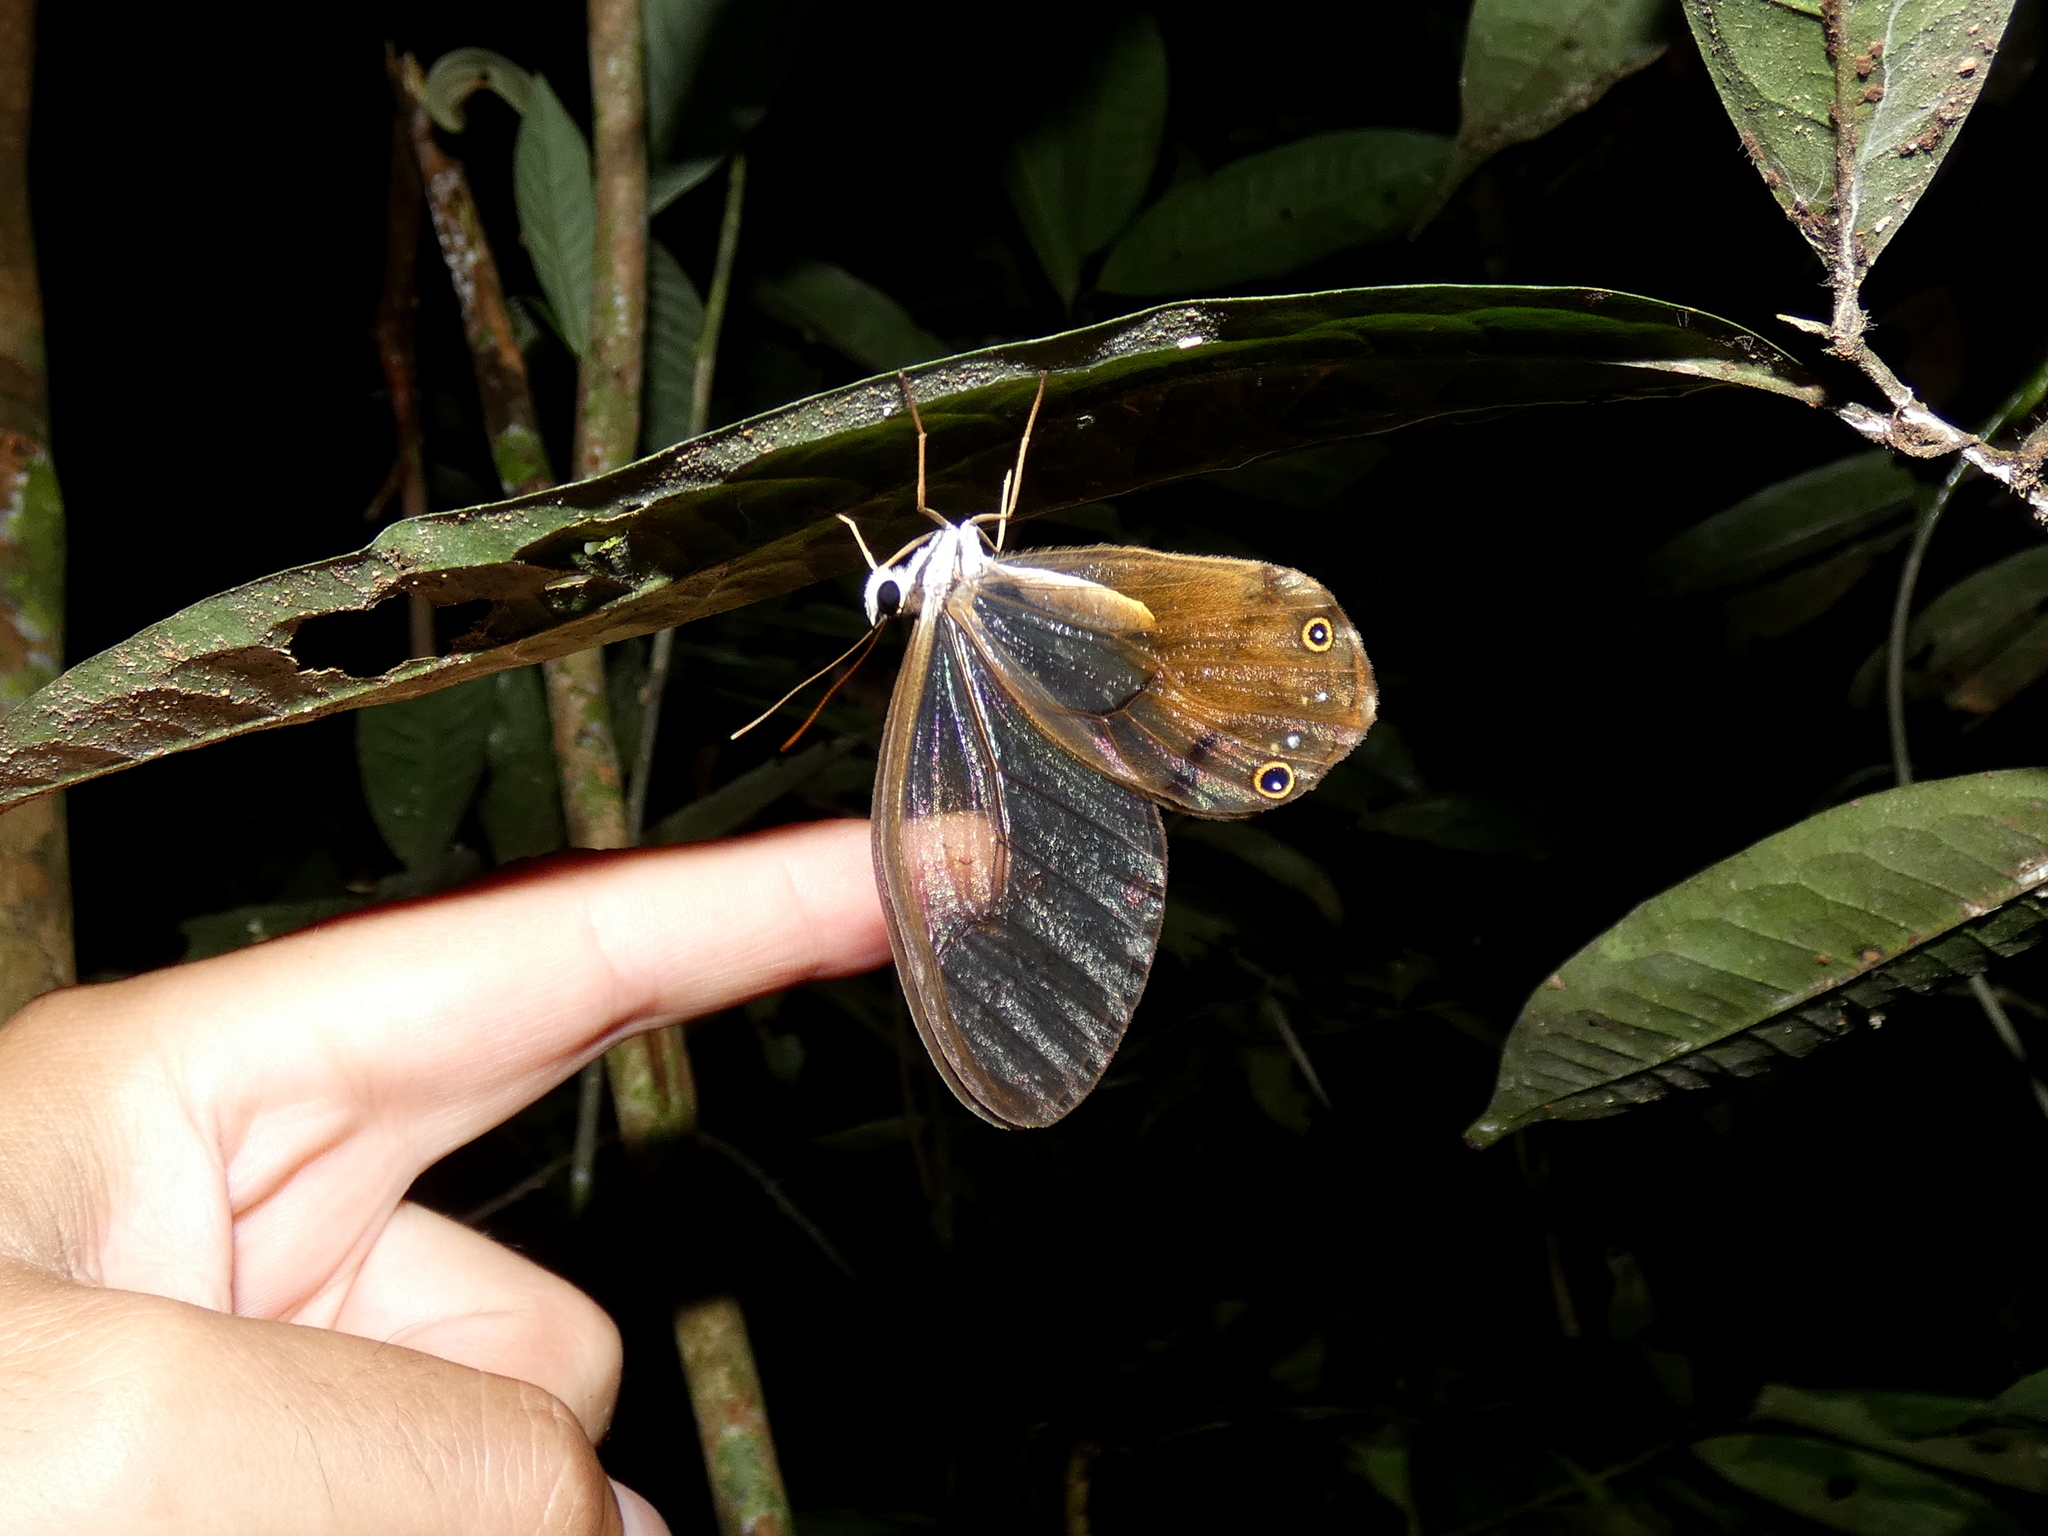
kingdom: Animalia
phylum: Arthropoda
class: Insecta
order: Lepidoptera
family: Nymphalidae
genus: Haetera
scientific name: Haetera piera
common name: Amber phantom
